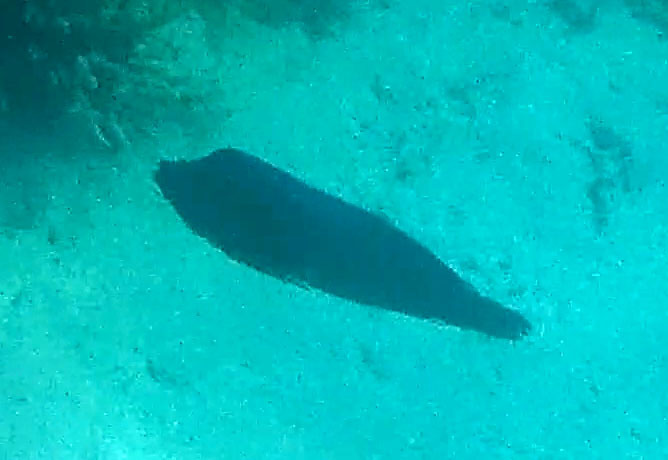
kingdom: Animalia
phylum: Chordata
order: Perciformes
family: Labridae
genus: Coris
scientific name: Coris aygula
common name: Clown coris
